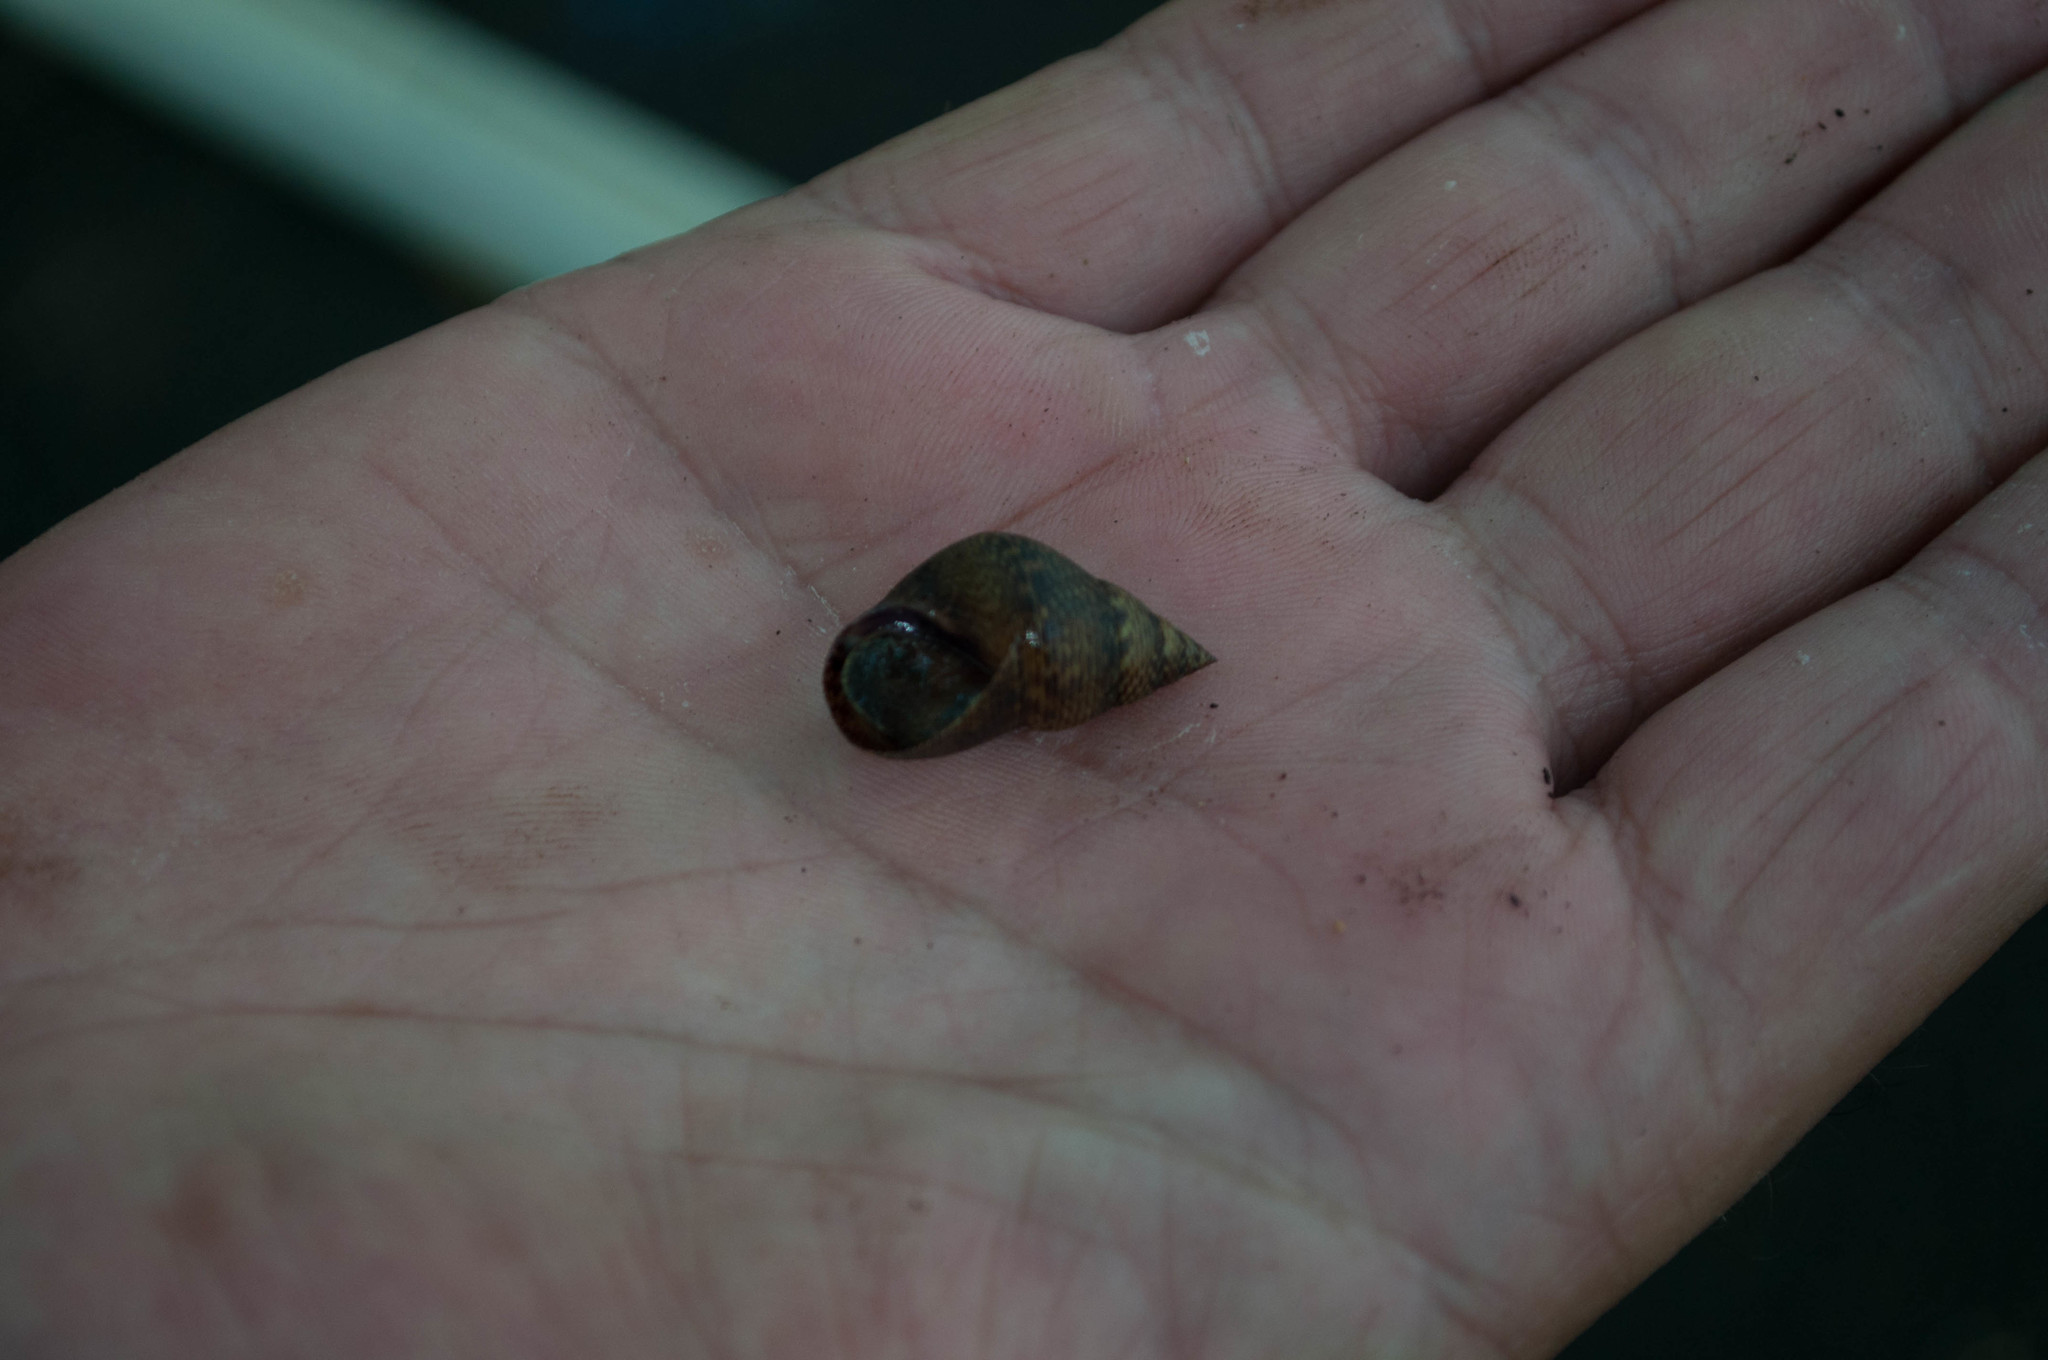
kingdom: Animalia
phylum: Mollusca
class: Gastropoda
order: Littorinimorpha
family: Littorinidae
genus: Littoraria
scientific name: Littoraria angulifera
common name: Mangrove periwinkle
